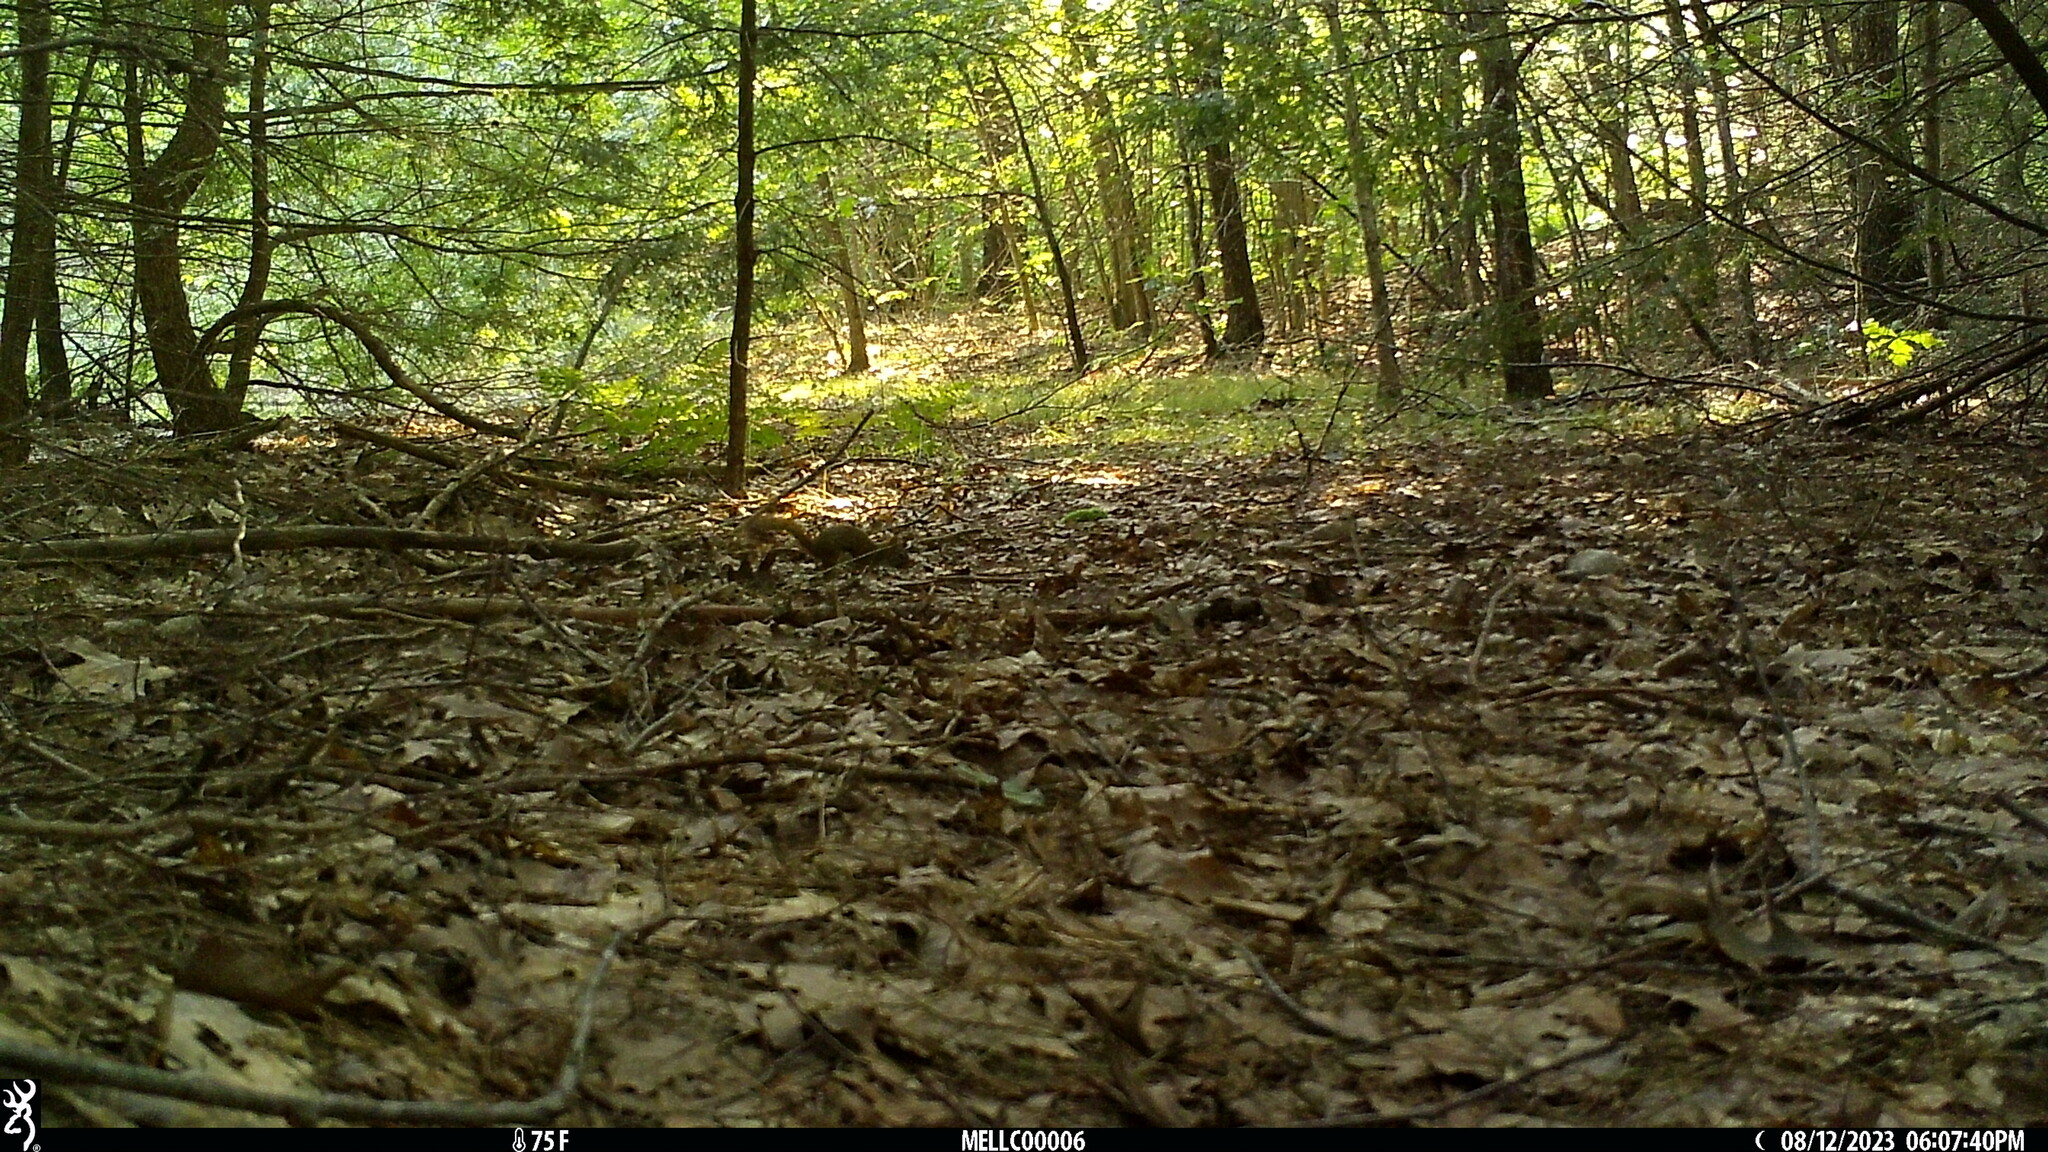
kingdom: Animalia
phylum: Chordata
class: Mammalia
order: Rodentia
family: Sciuridae
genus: Tamiasciurus
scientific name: Tamiasciurus hudsonicus
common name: Red squirrel
